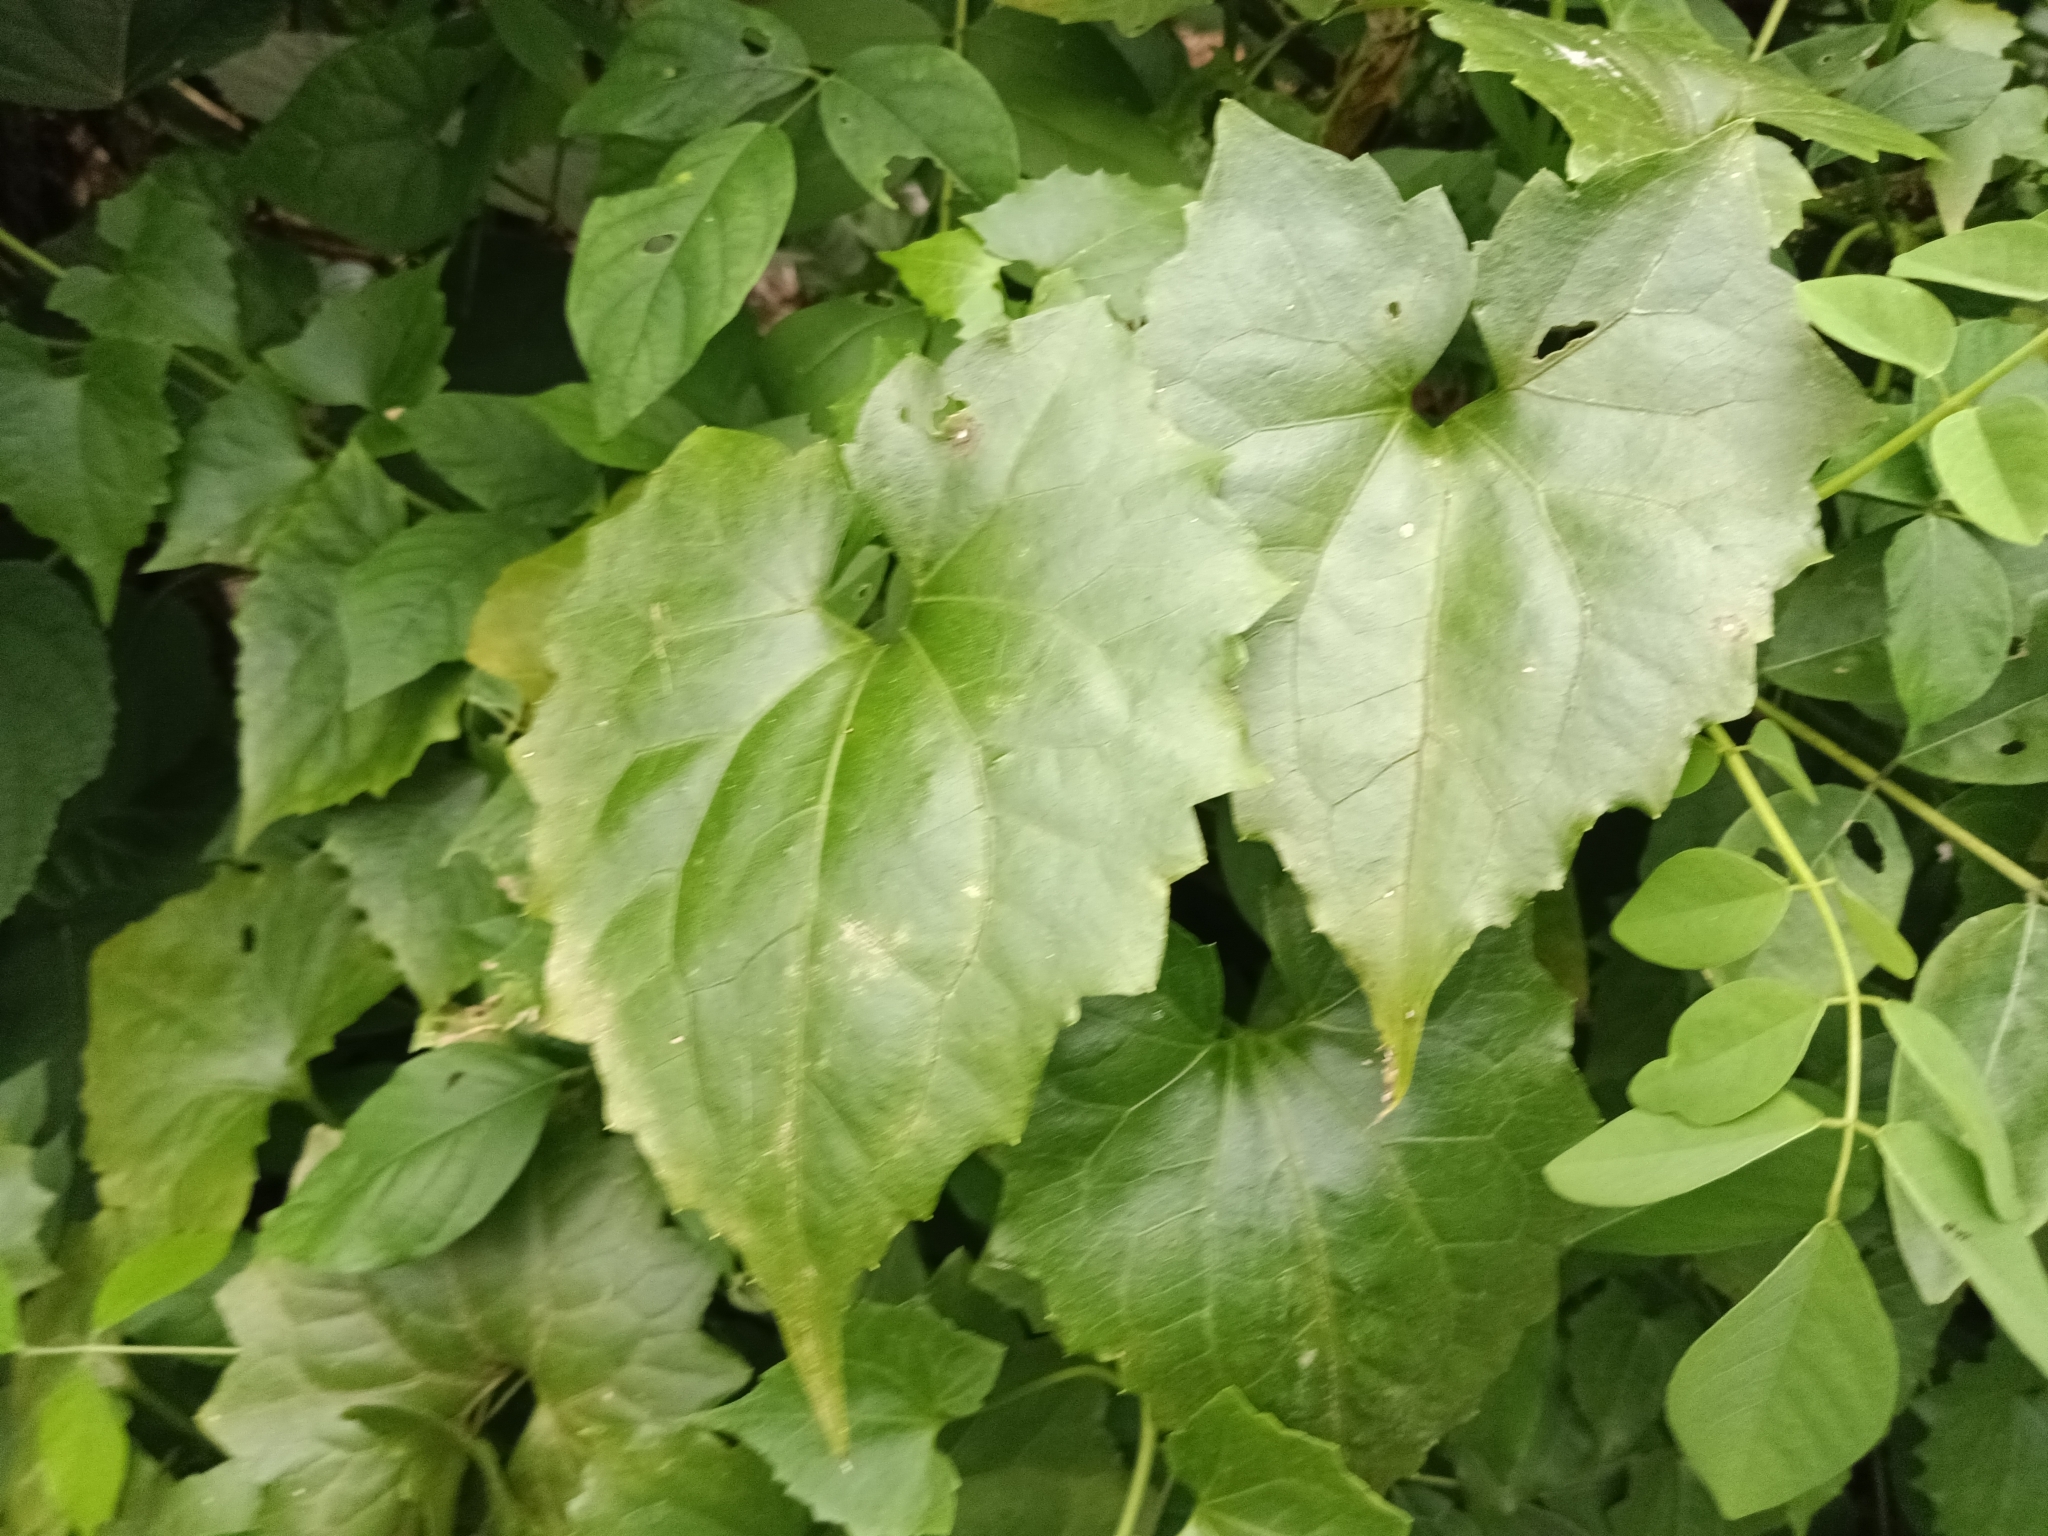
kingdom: Plantae
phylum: Tracheophyta
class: Magnoliopsida
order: Asterales
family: Asteraceae
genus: Mikania
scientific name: Mikania micrantha
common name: Mile-a-minute
